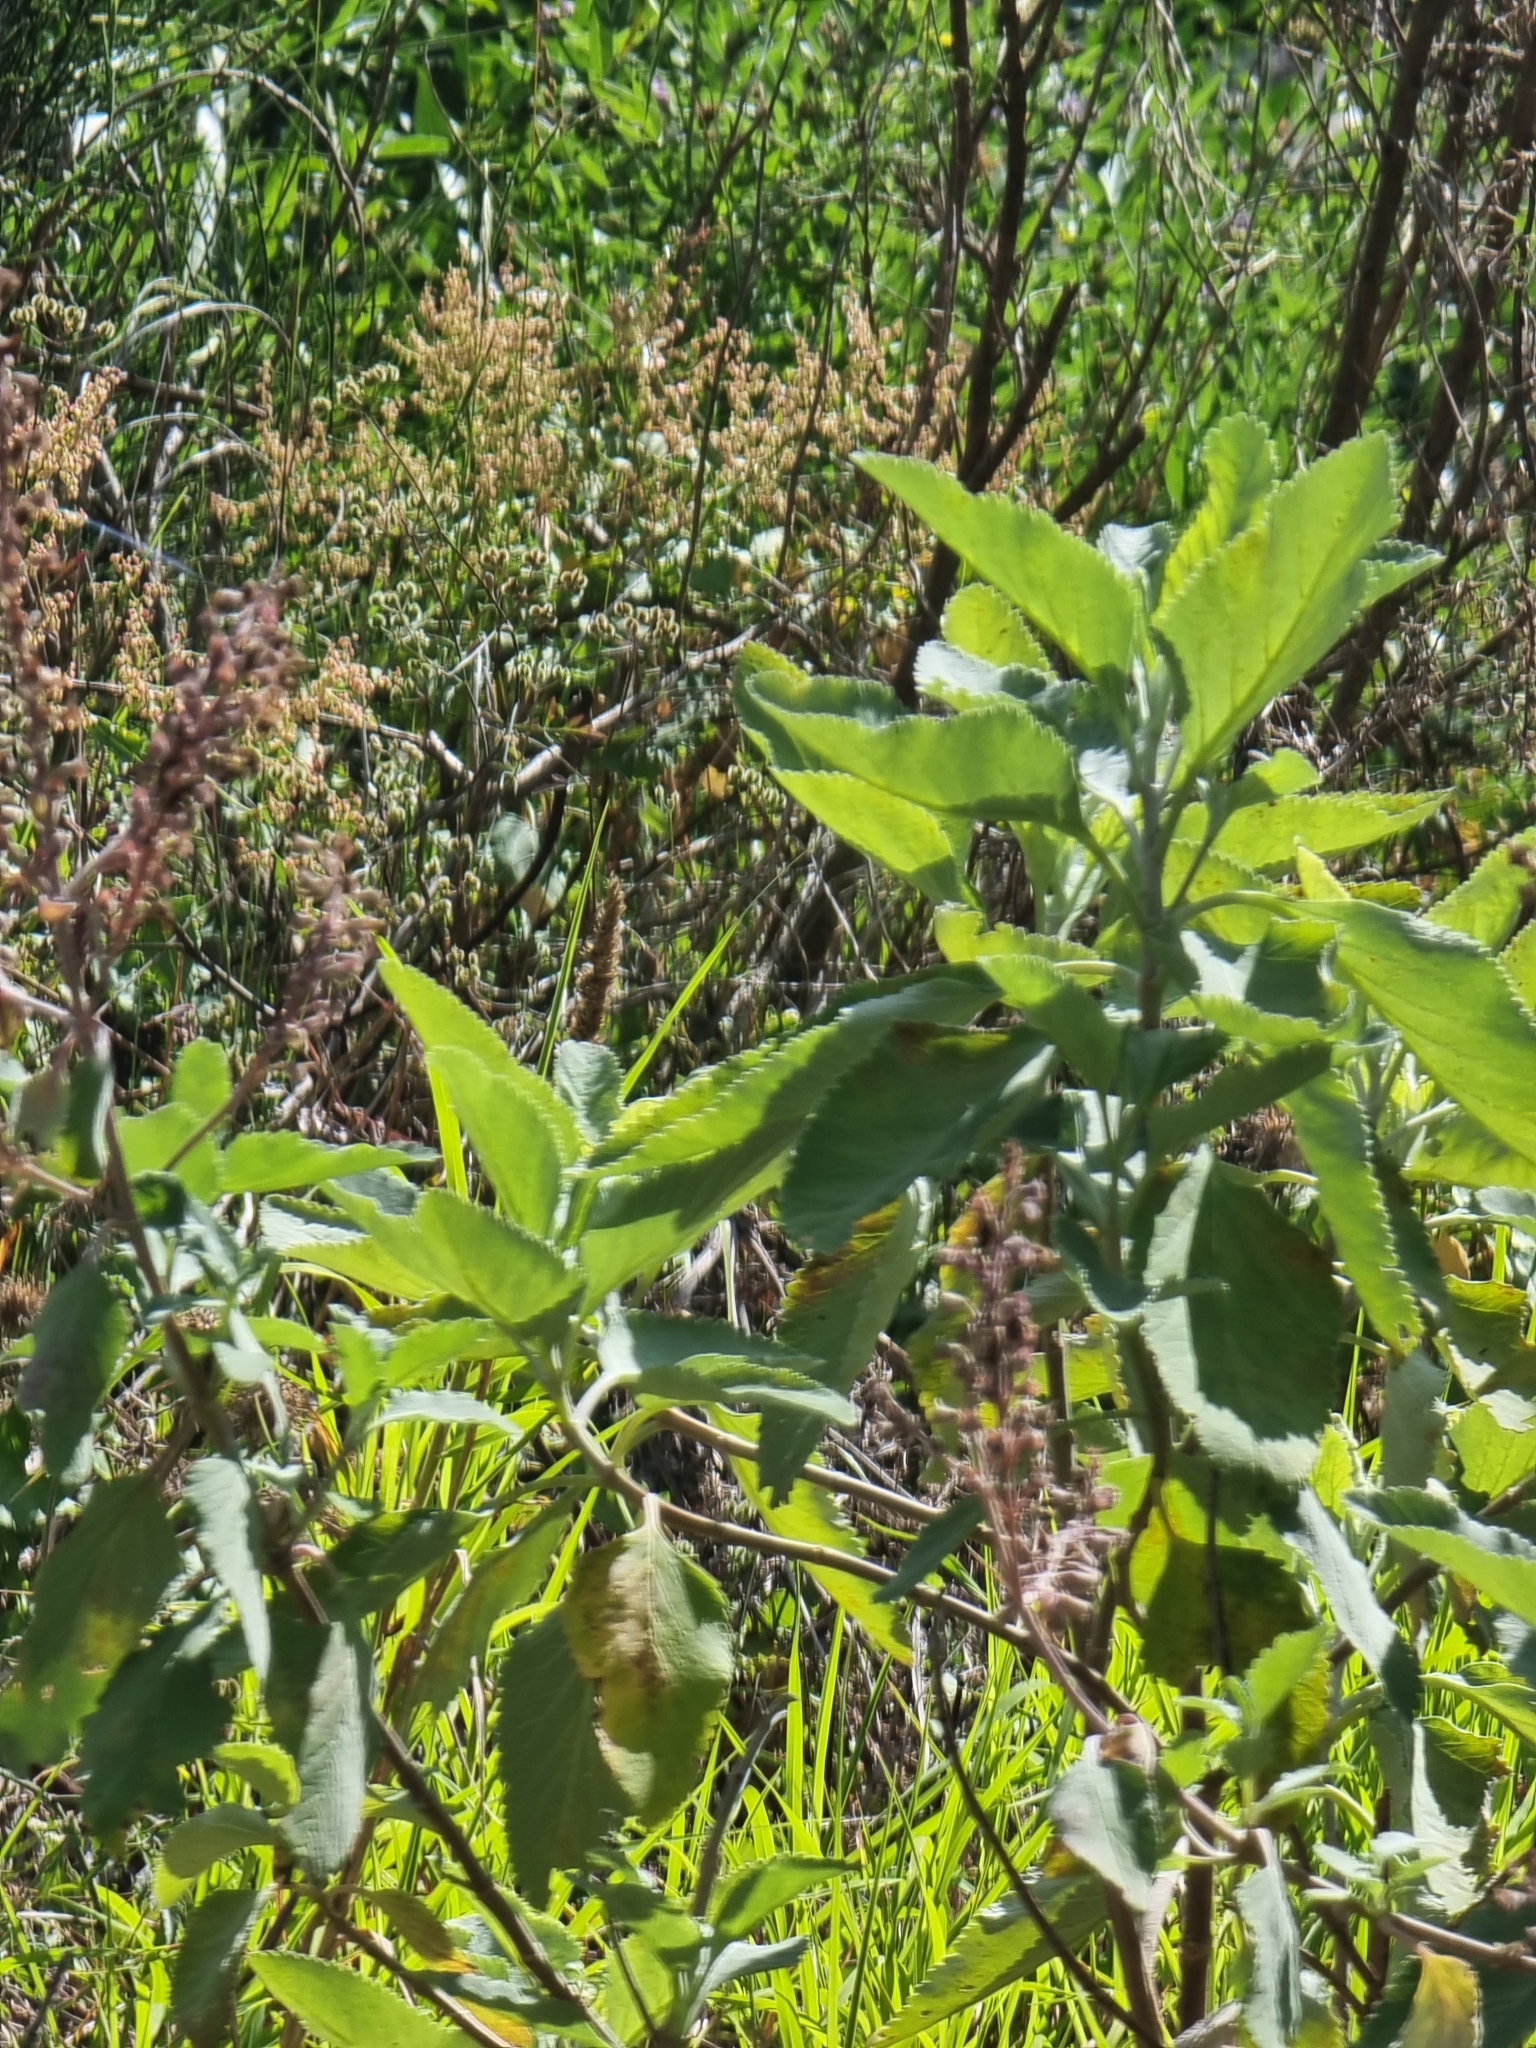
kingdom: Plantae
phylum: Tracheophyta
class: Magnoliopsida
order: Lamiales
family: Lamiaceae
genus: Teucrium
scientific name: Teucrium betonicum
